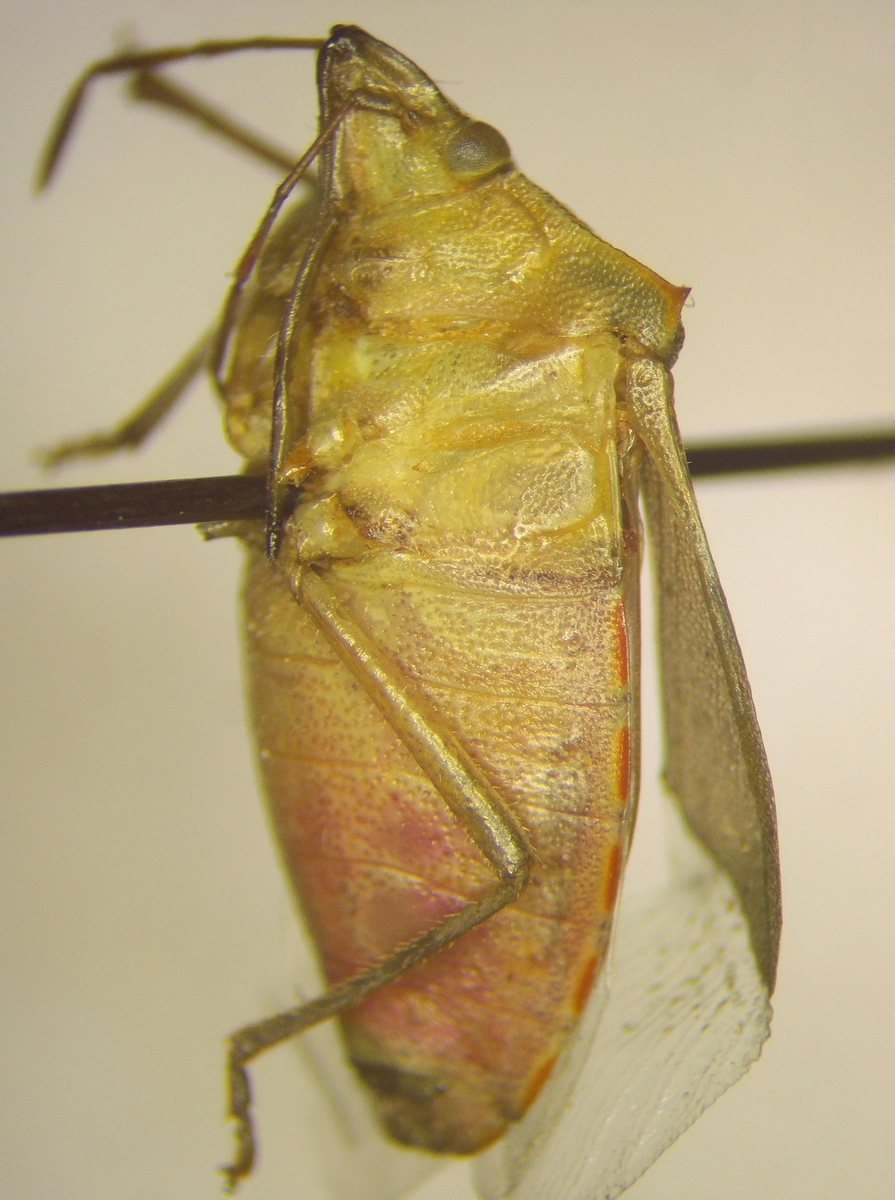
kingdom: Animalia
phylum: Arthropoda
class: Insecta
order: Hemiptera
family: Pentatomidae
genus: Thyanta
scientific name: Thyanta custator
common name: Stink bug
